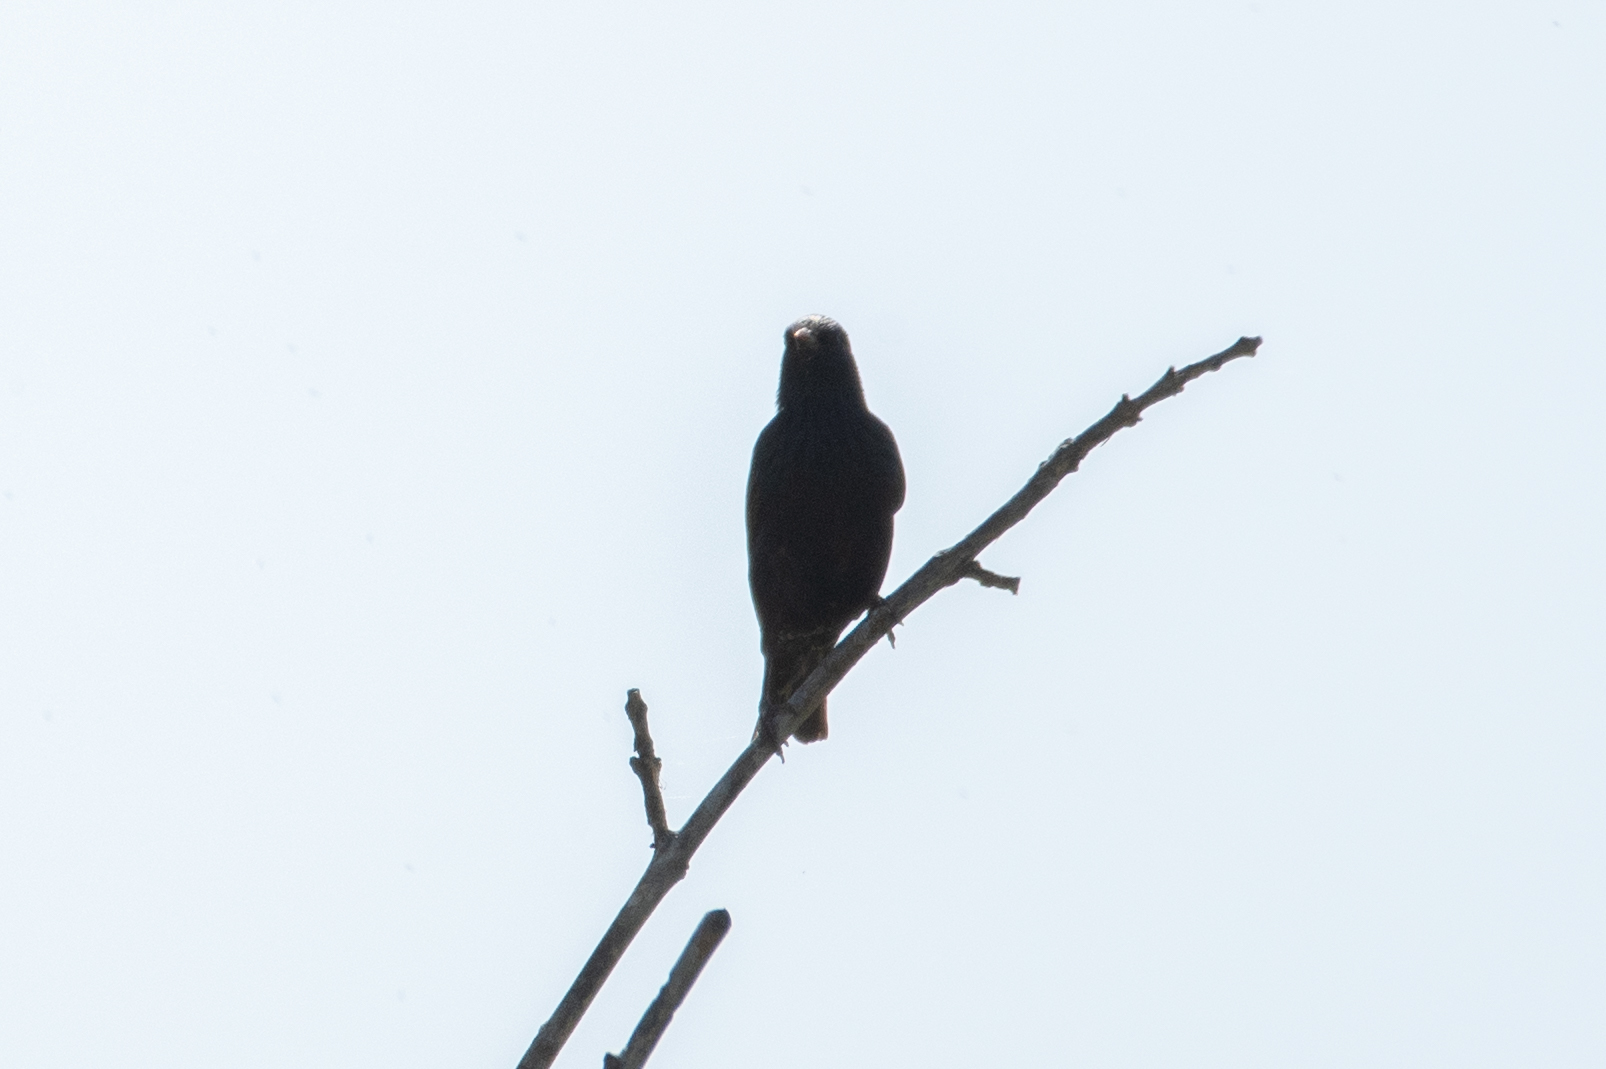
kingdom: Animalia
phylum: Chordata
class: Aves
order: Passeriformes
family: Sturnidae
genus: Sturnus
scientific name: Sturnus vulgaris
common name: Common starling
